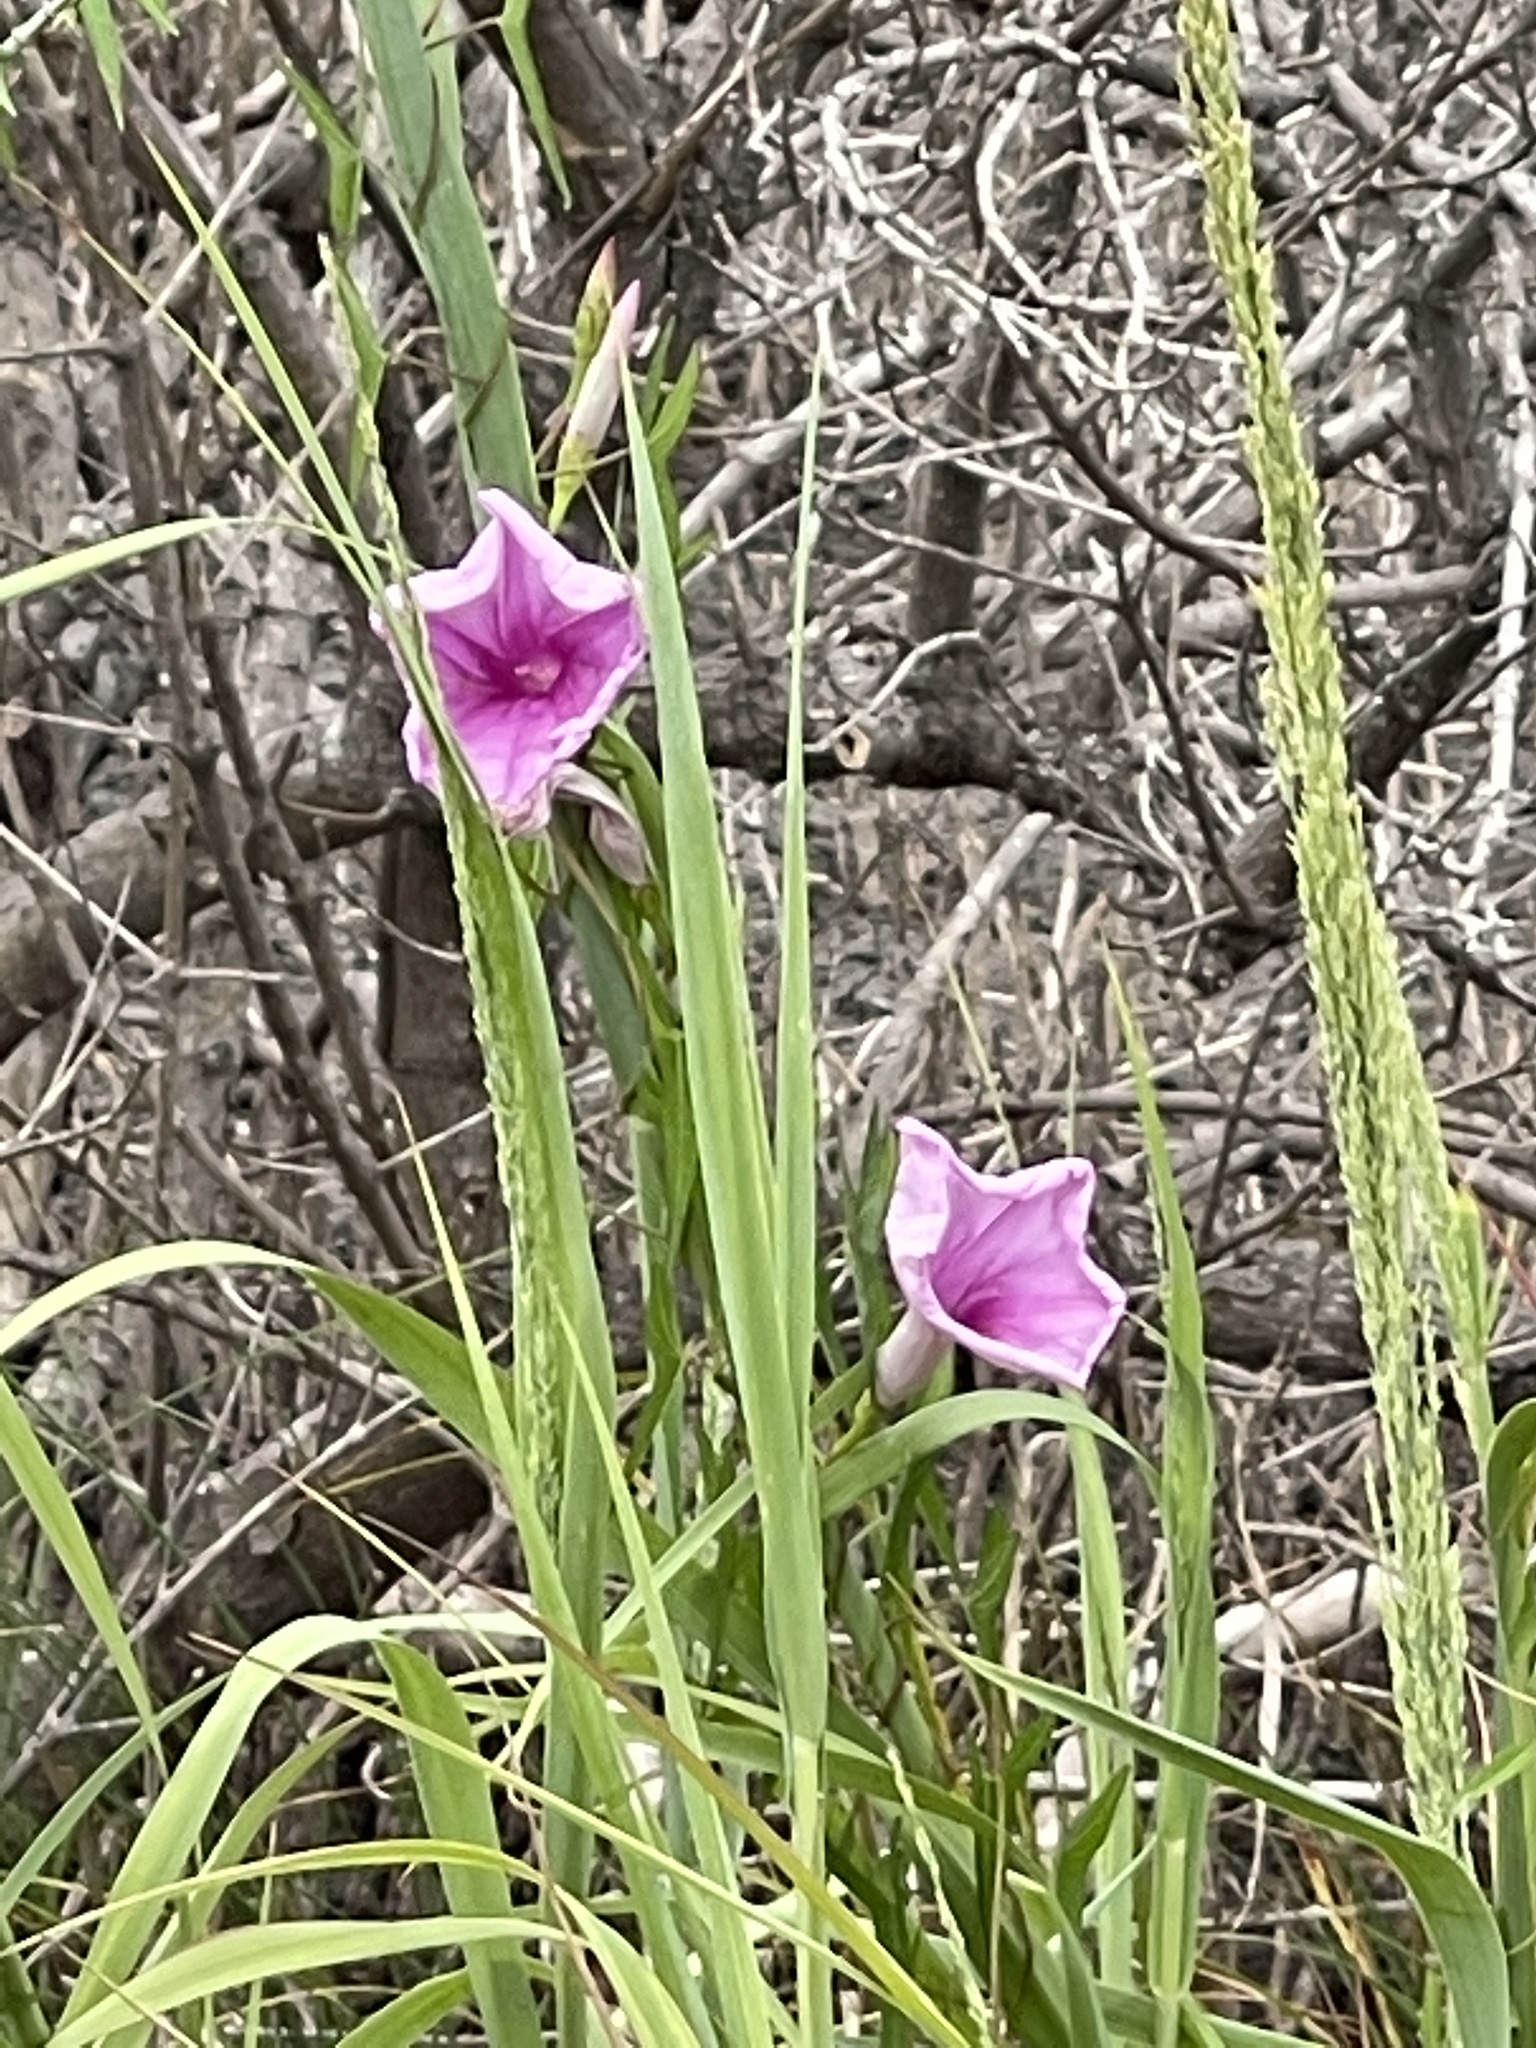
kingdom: Plantae
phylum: Tracheophyta
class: Magnoliopsida
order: Solanales
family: Convolvulaceae
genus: Ipomoea
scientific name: Ipomoea sagittata
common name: Saltmarsh morning glory
